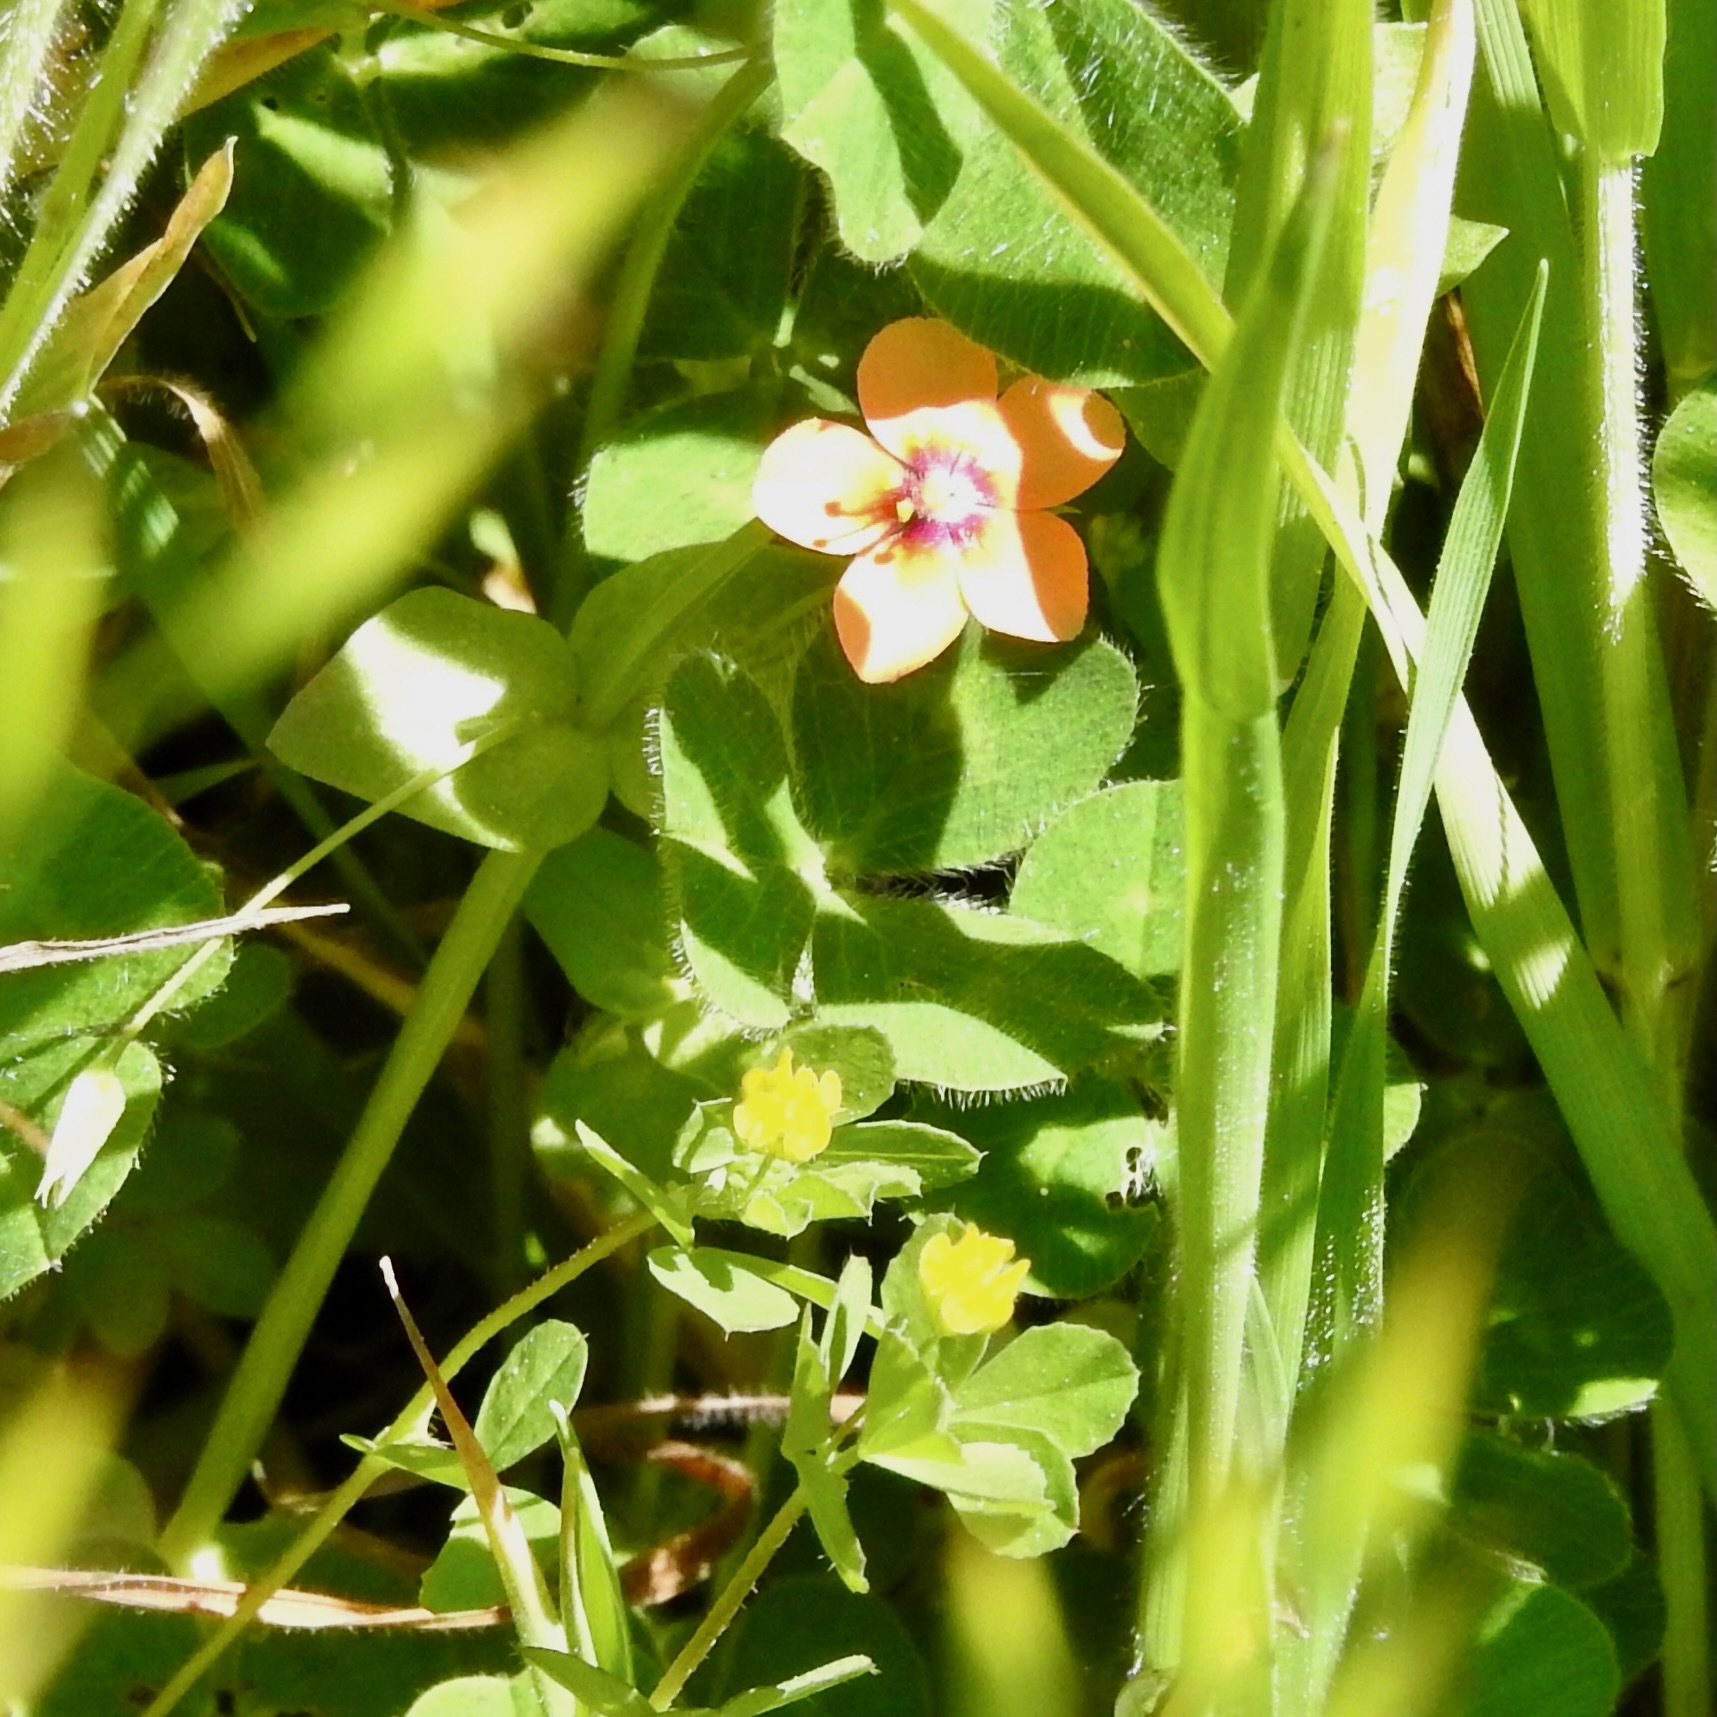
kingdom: Plantae
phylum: Tracheophyta
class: Magnoliopsida
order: Fabales
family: Fabaceae
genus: Trifolium
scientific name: Trifolium dubium
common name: Suckling clover
